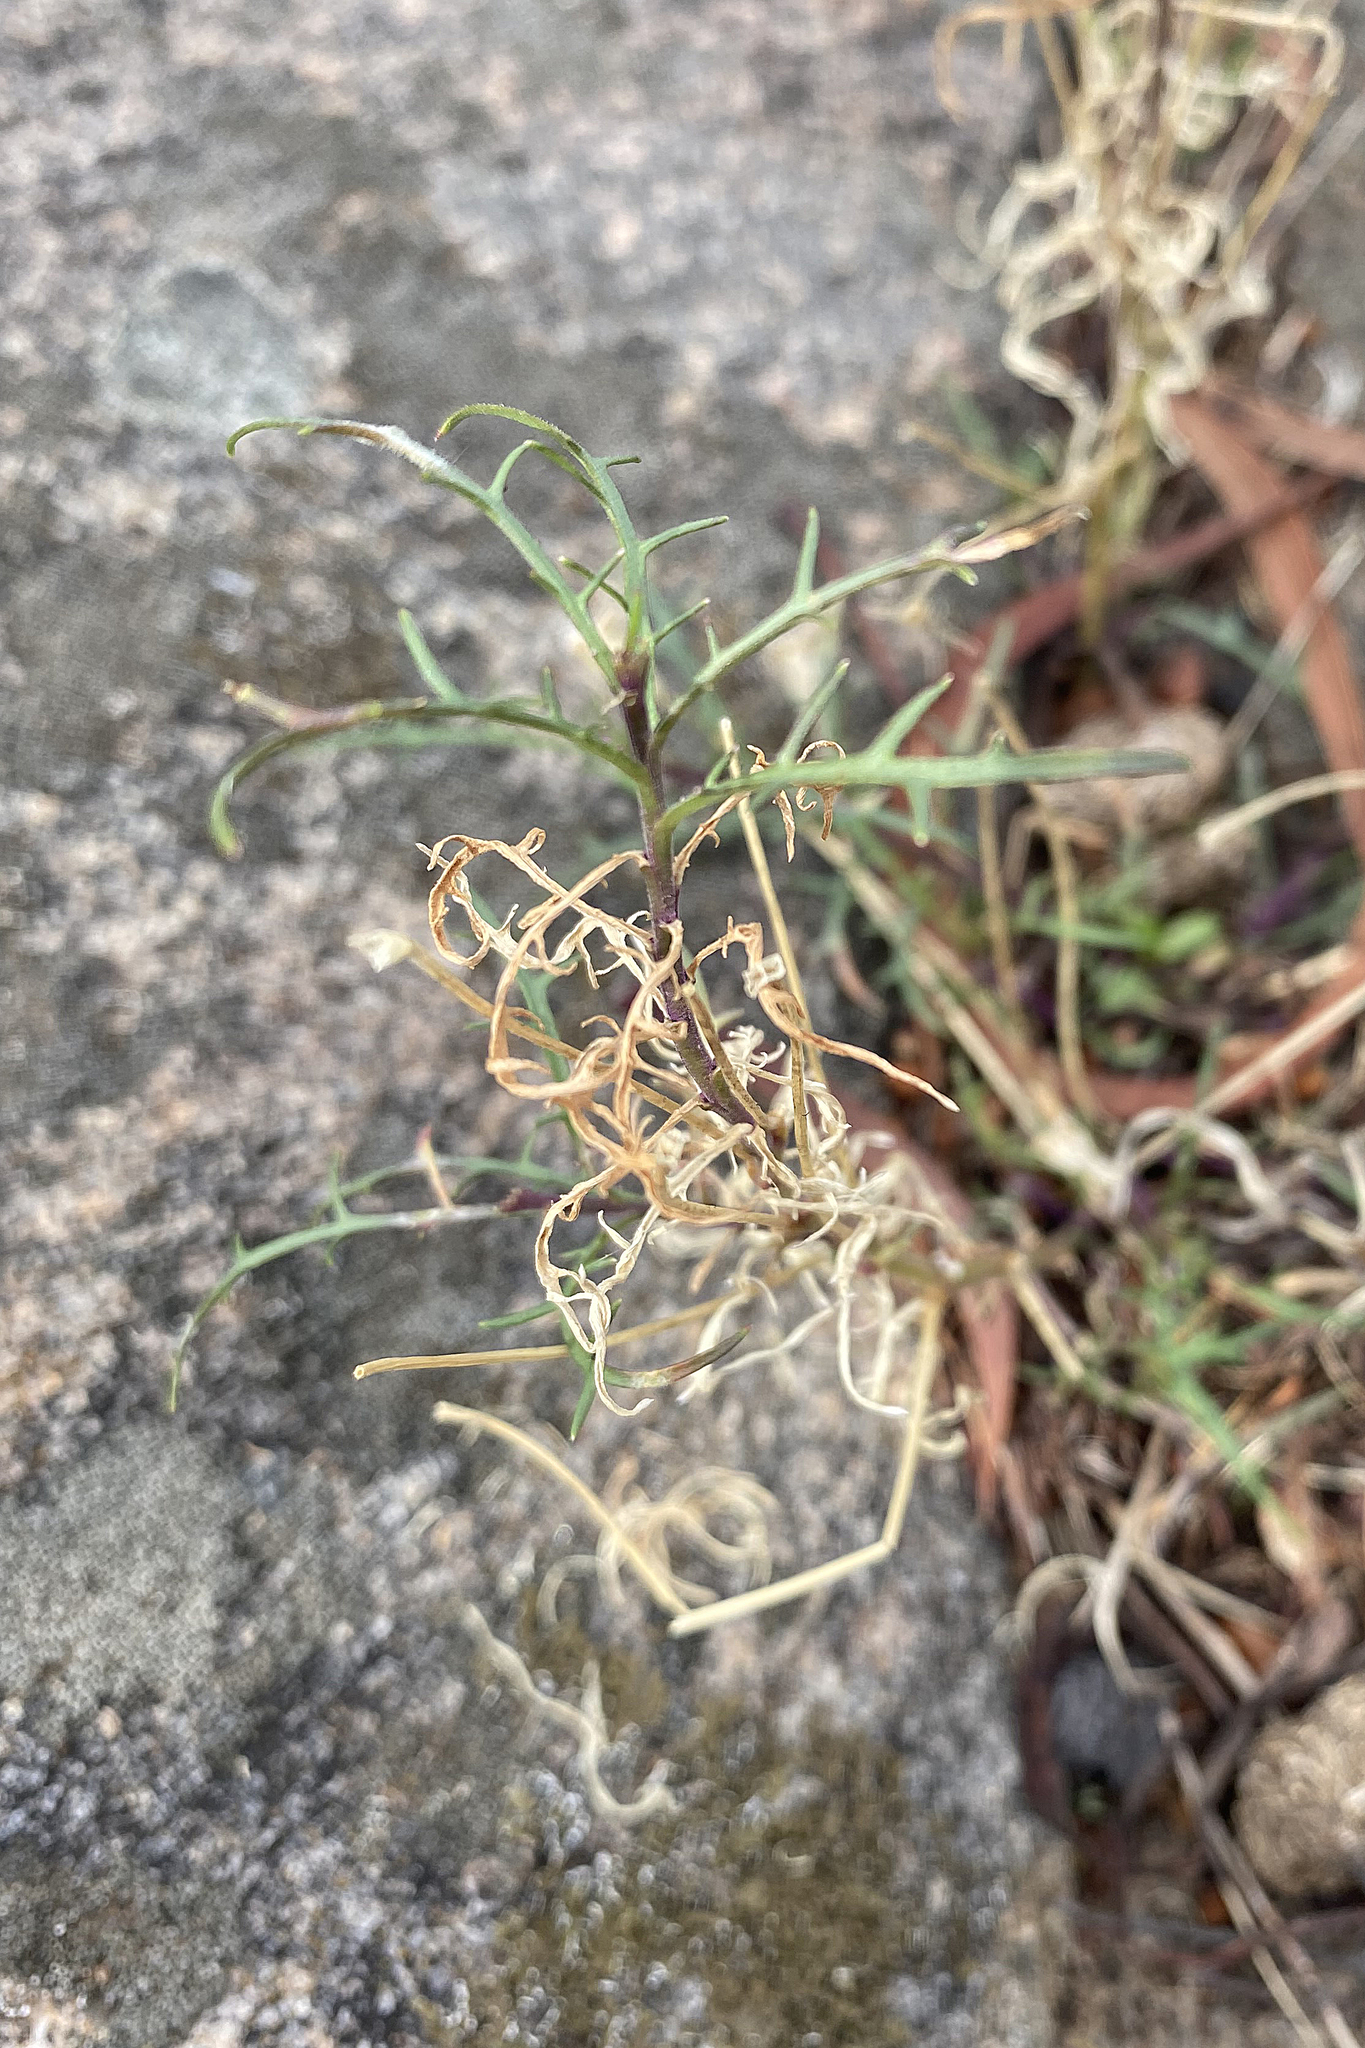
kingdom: Plantae
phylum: Tracheophyta
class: Magnoliopsida
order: Asterales
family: Campanulaceae
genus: Lithotoma
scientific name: Lithotoma axillaris
